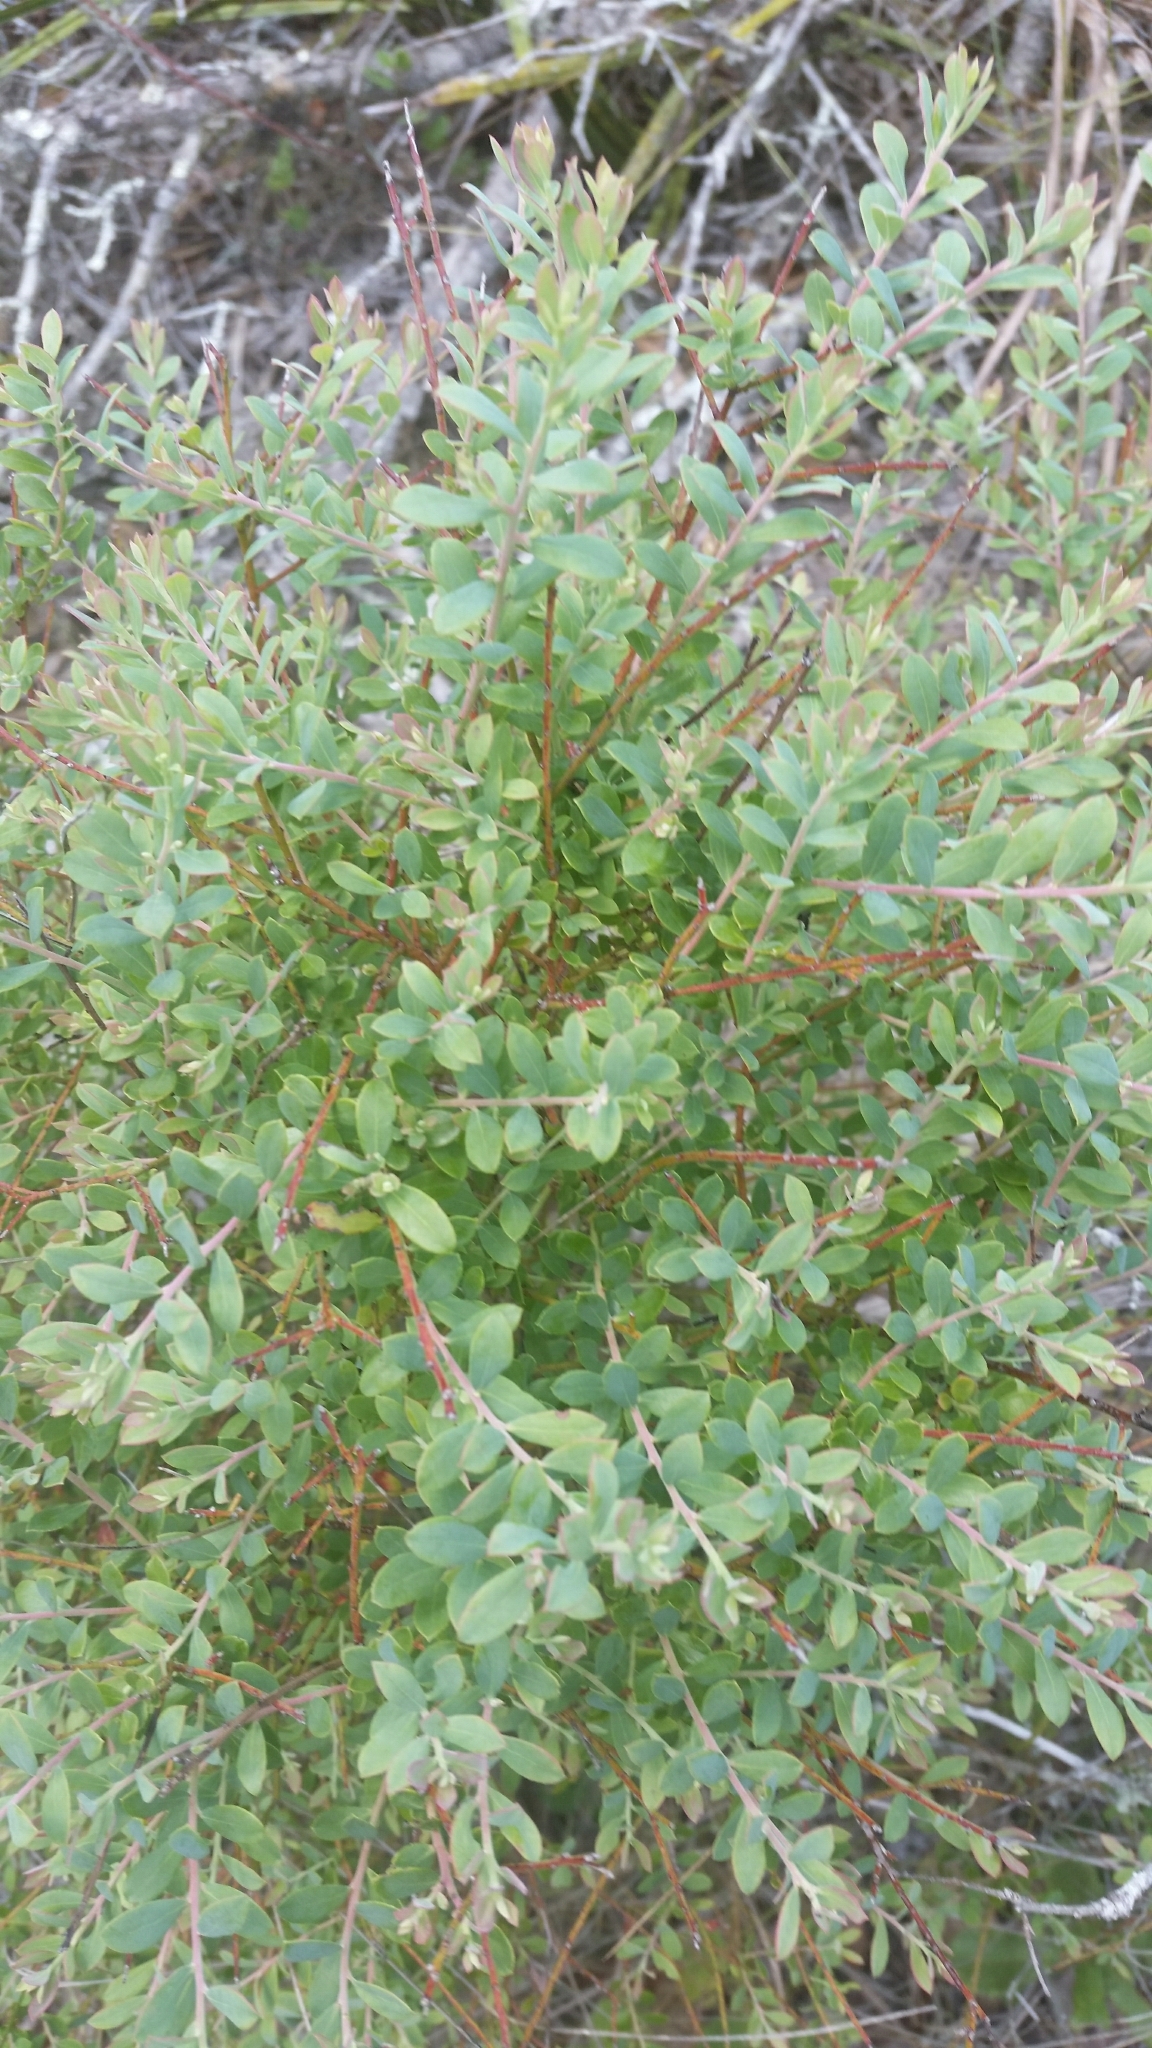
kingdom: Plantae
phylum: Tracheophyta
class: Magnoliopsida
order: Ericales
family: Ericaceae
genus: Vaccinium
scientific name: Vaccinium darrowii
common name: Darrow's blueberry
